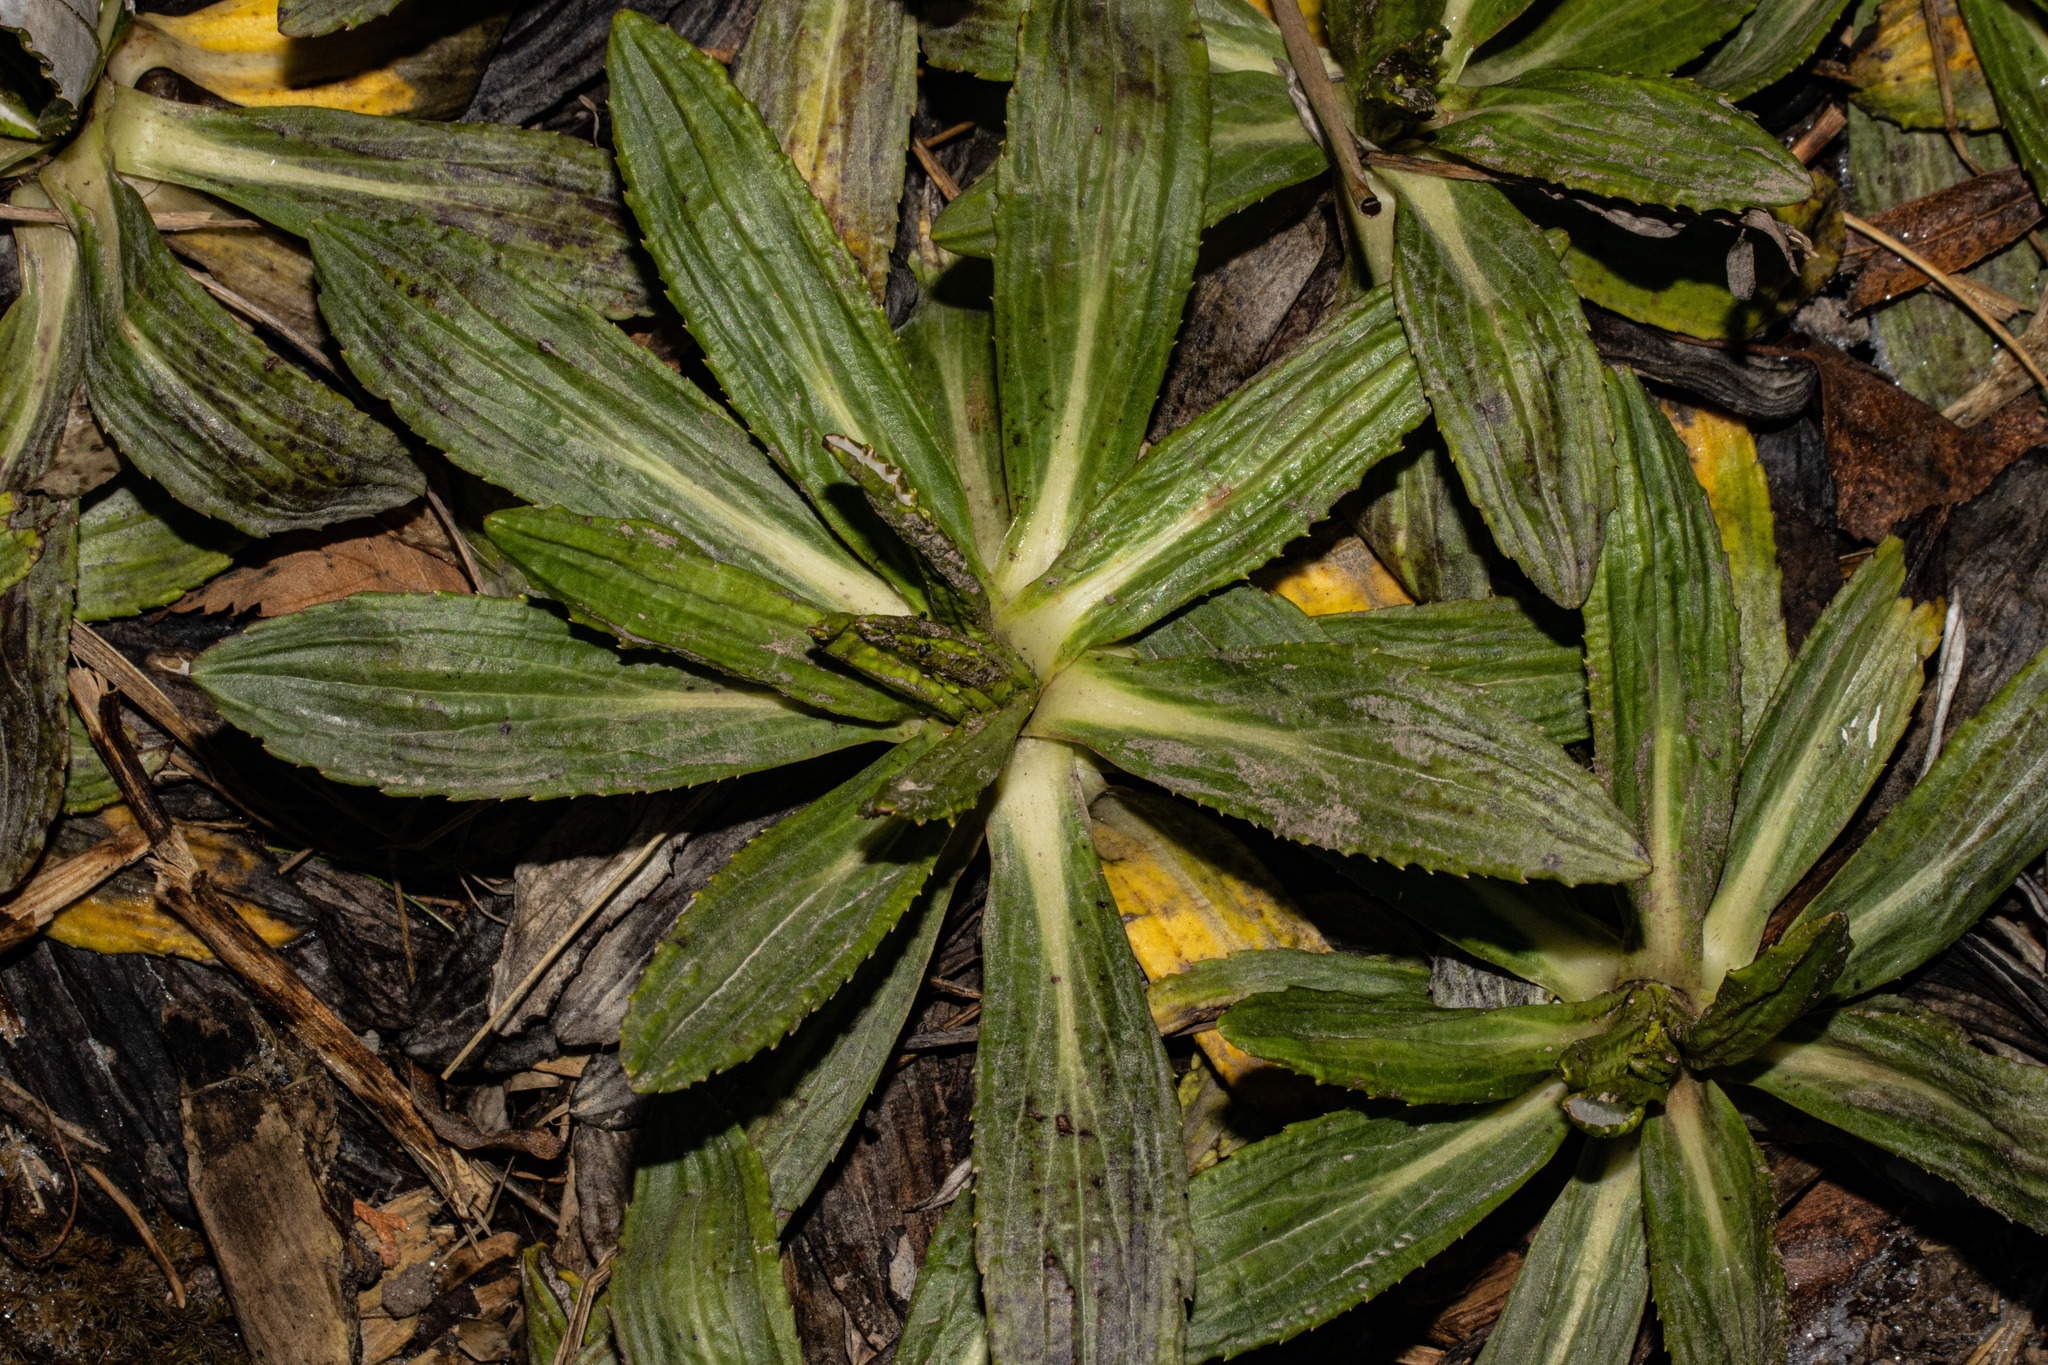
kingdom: Plantae
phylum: Tracheophyta
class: Magnoliopsida
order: Asterales
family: Asteraceae
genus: Celmisia
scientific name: Celmisia densiflora
